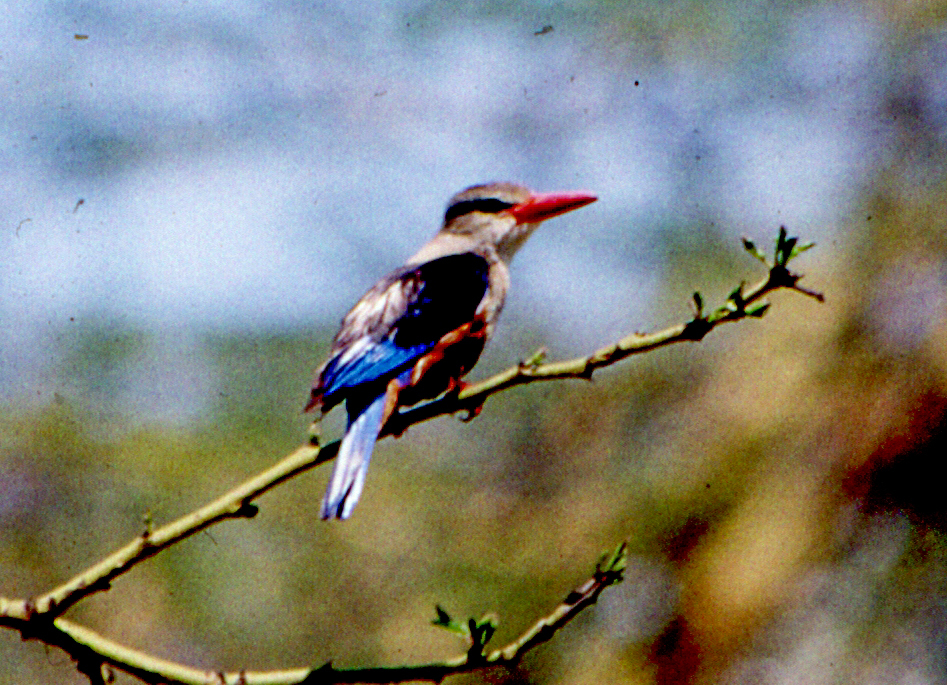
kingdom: Animalia
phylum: Chordata
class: Aves
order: Coraciiformes
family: Alcedinidae
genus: Halcyon
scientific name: Halcyon leucocephala
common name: Grey-headed kingfisher
